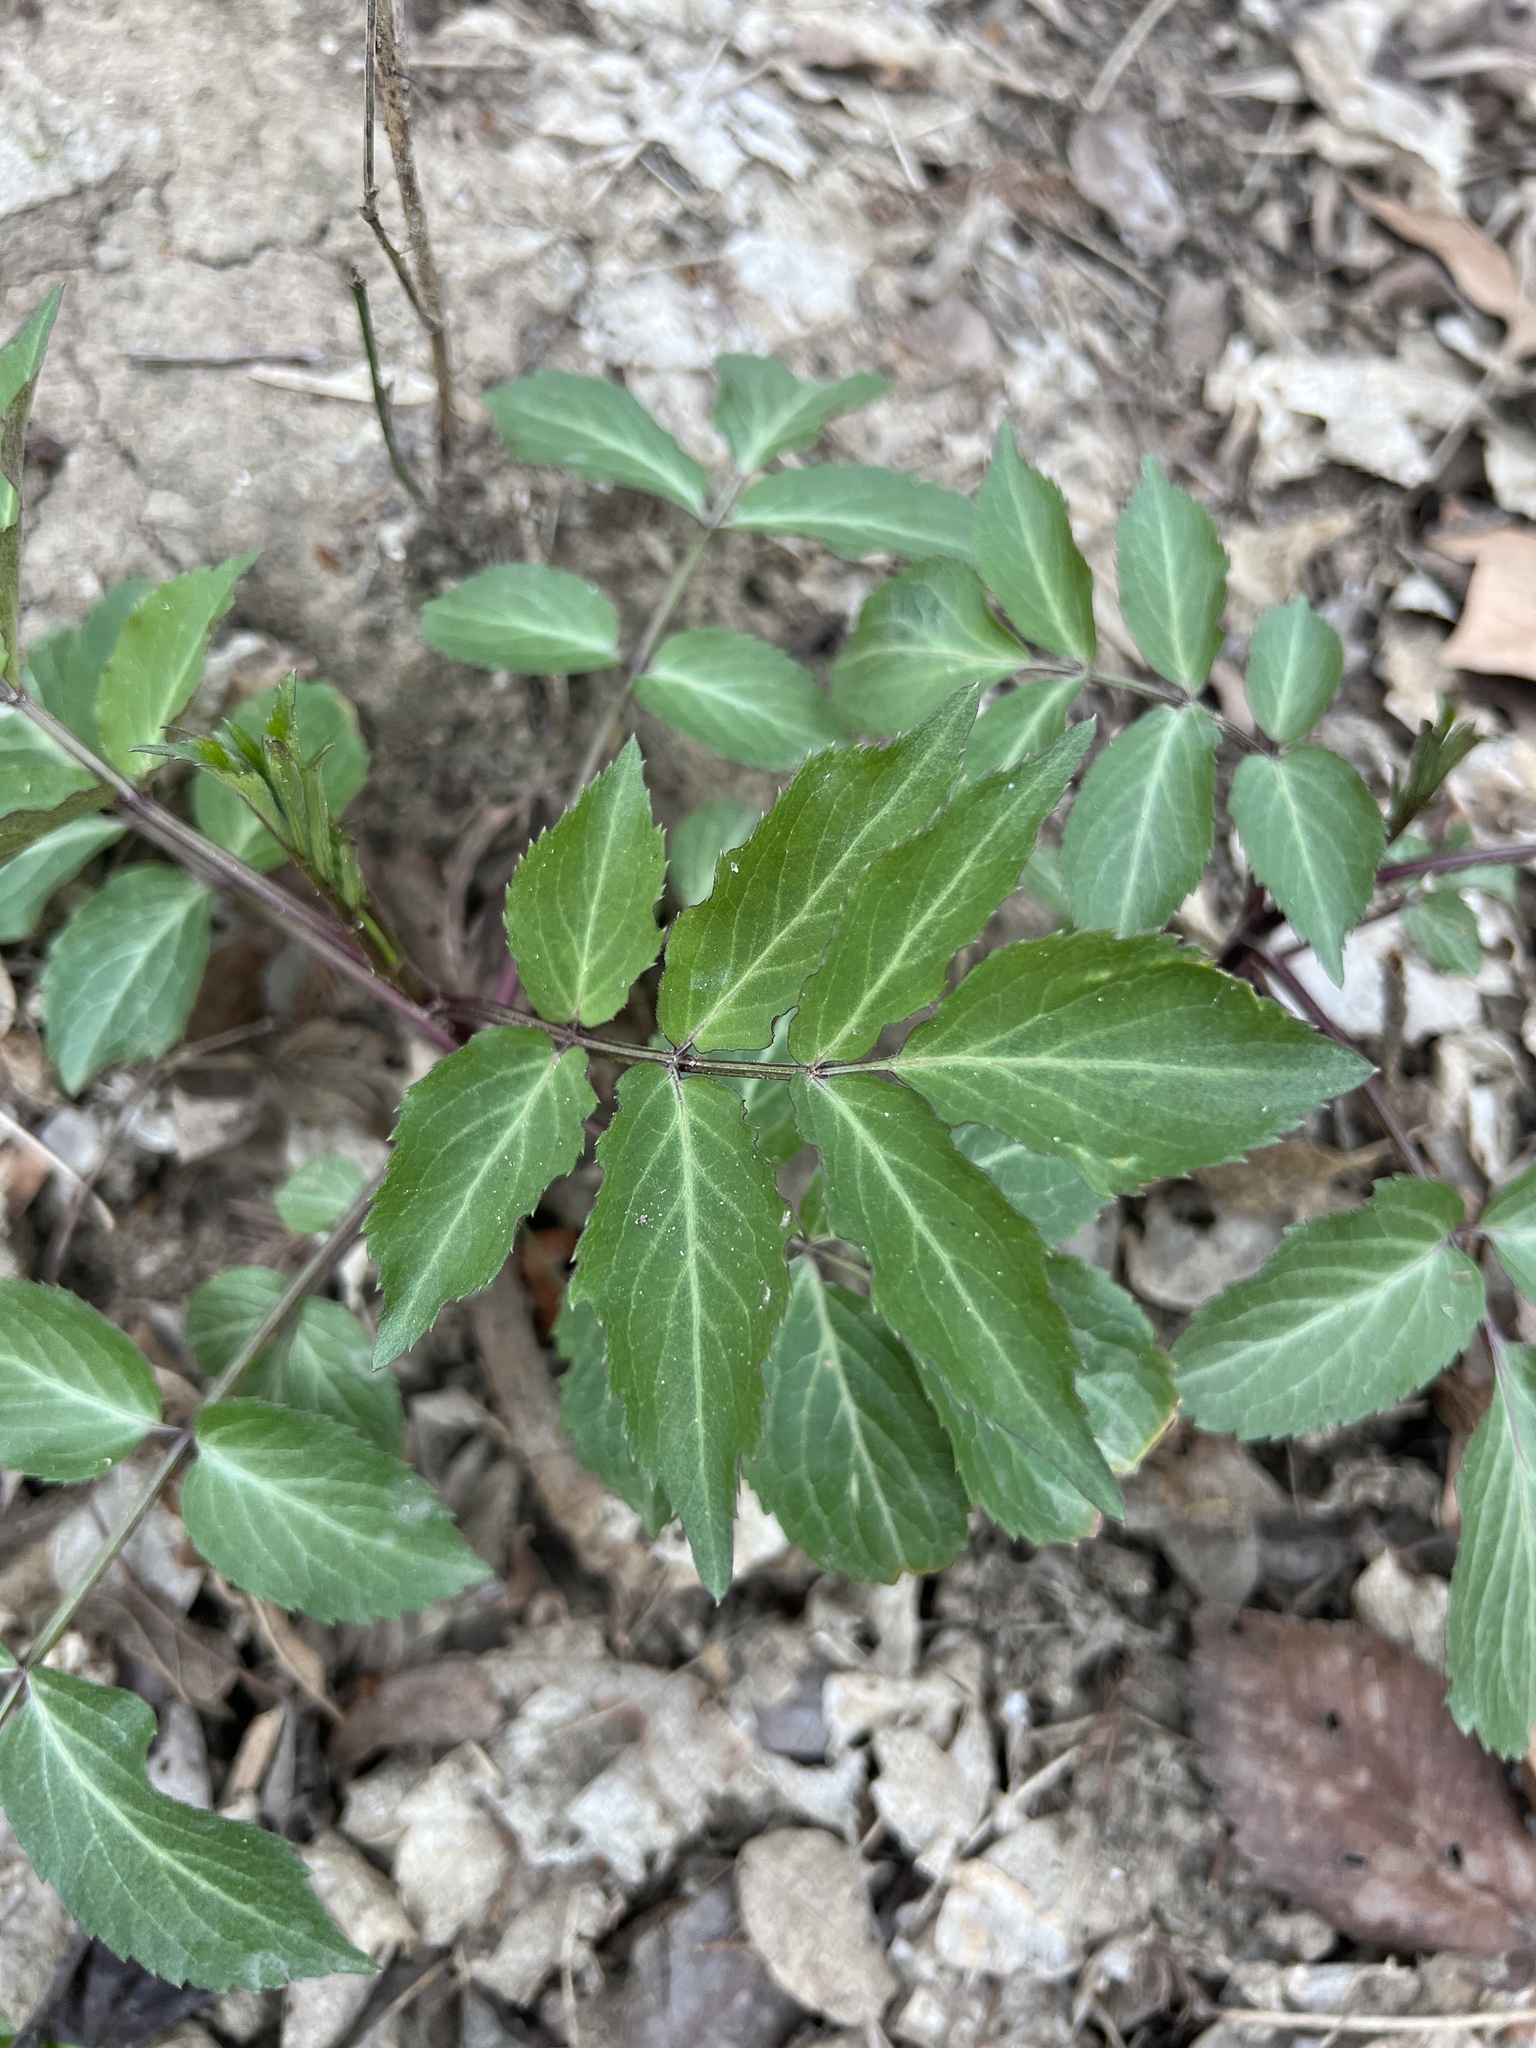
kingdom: Plantae
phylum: Tracheophyta
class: Magnoliopsida
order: Dipsacales
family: Viburnaceae
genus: Sambucus
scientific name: Sambucus canadensis
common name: American elder
